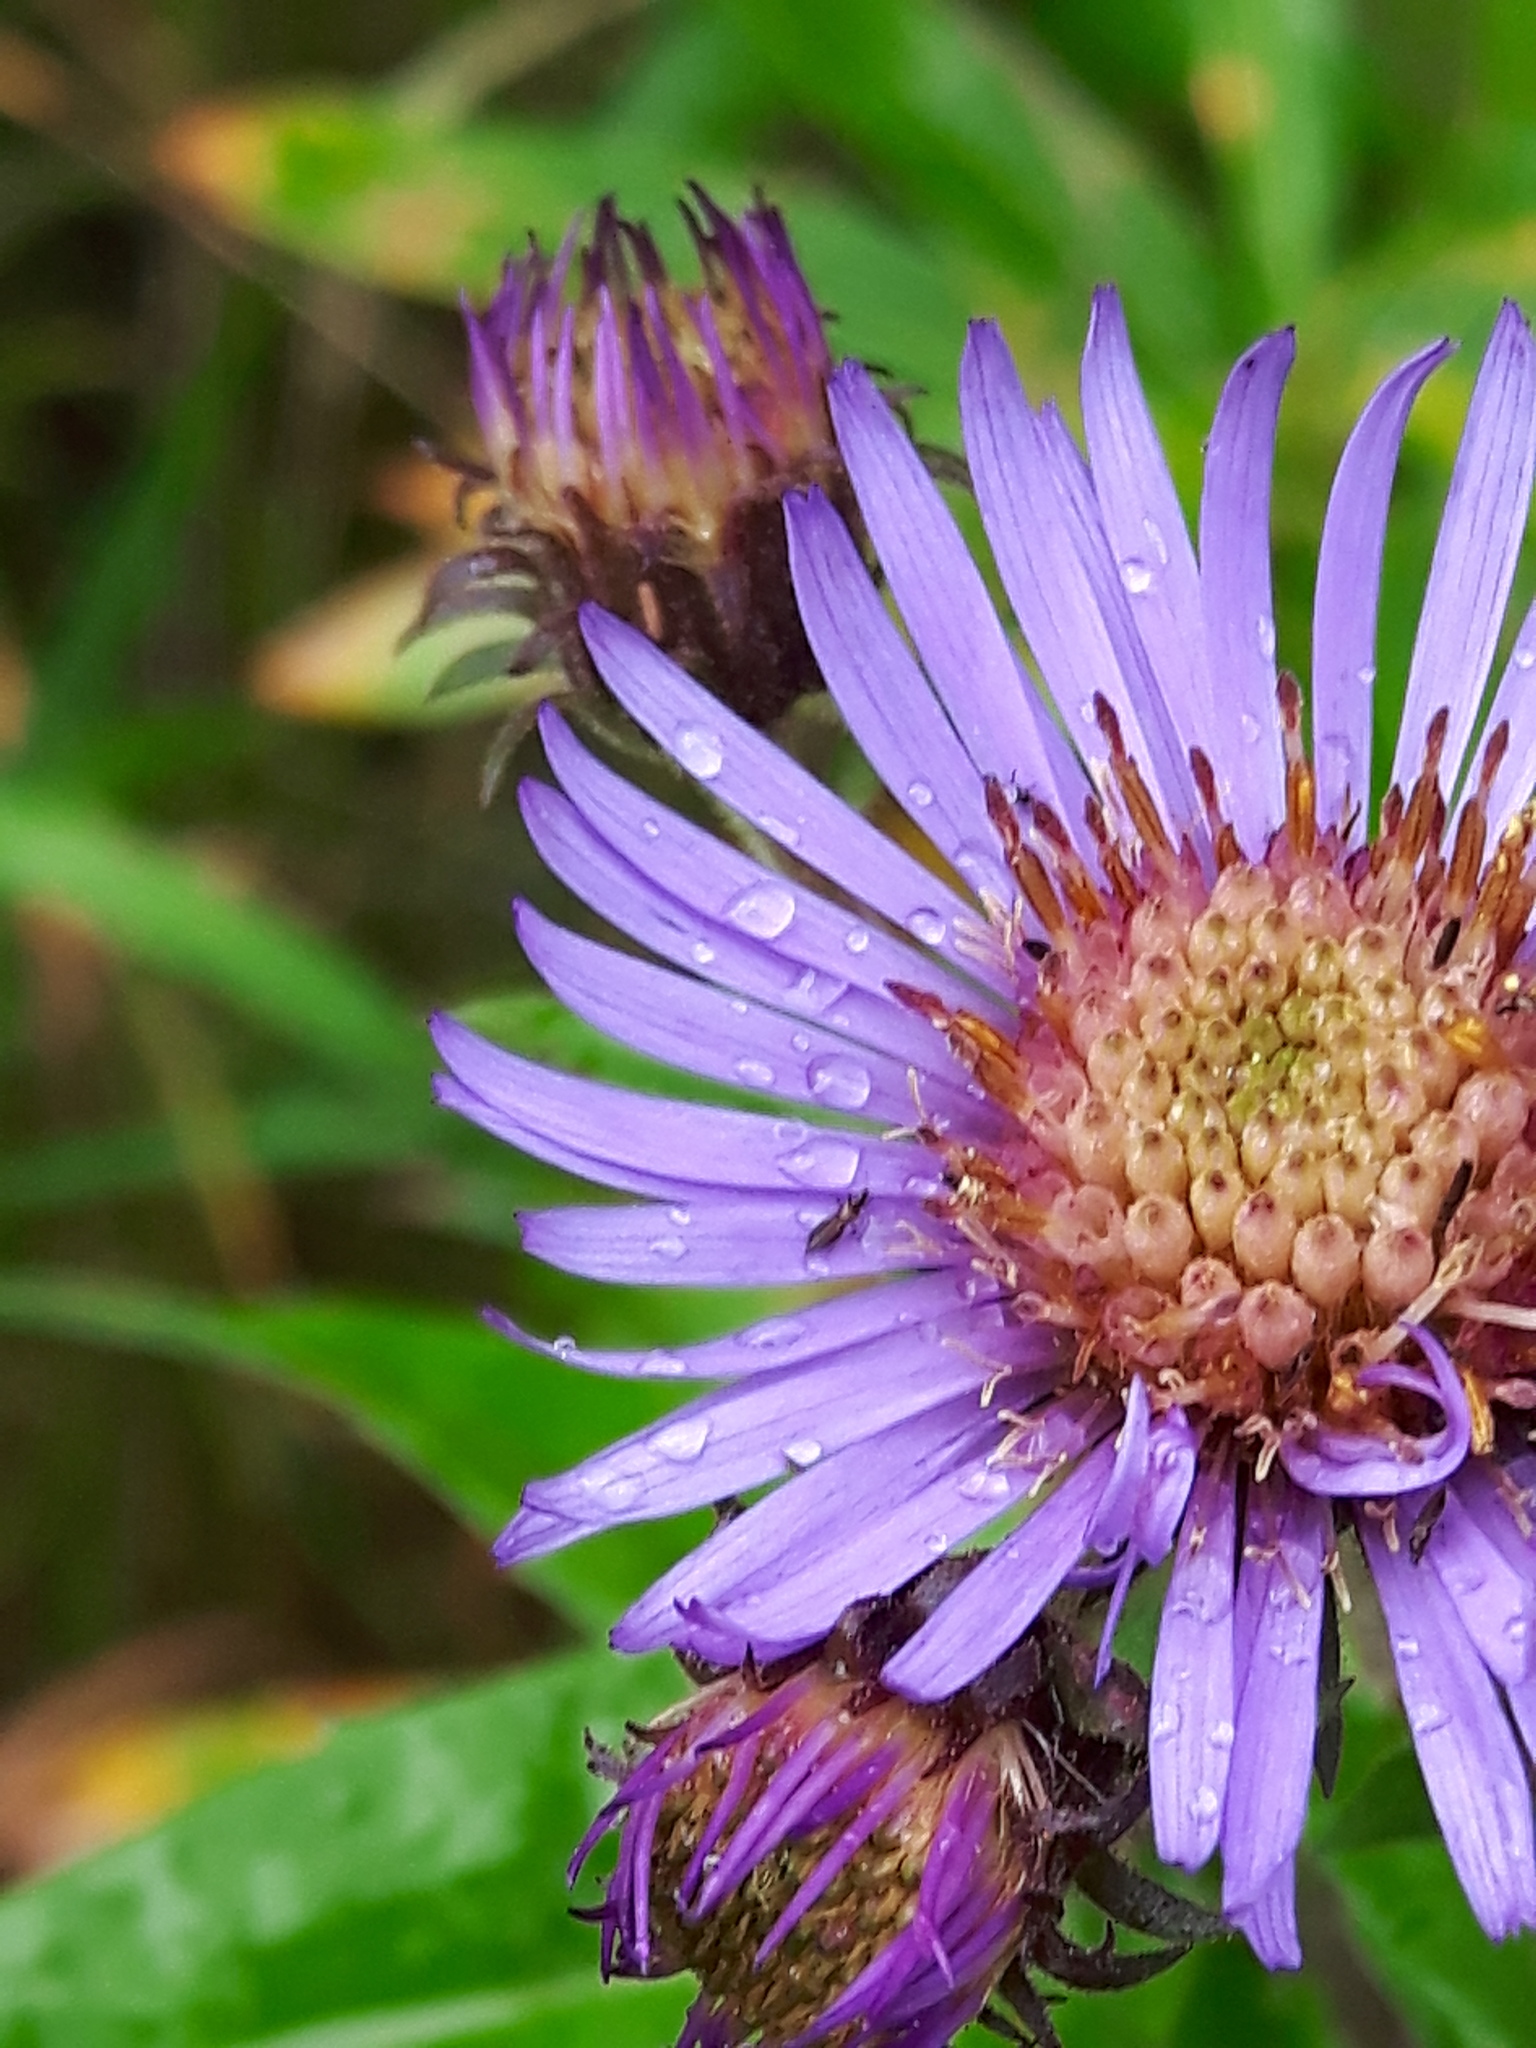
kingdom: Plantae
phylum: Tracheophyta
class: Magnoliopsida
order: Asterales
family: Asteraceae
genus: Canadanthus
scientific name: Canadanthus modestus
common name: Great northern aster
